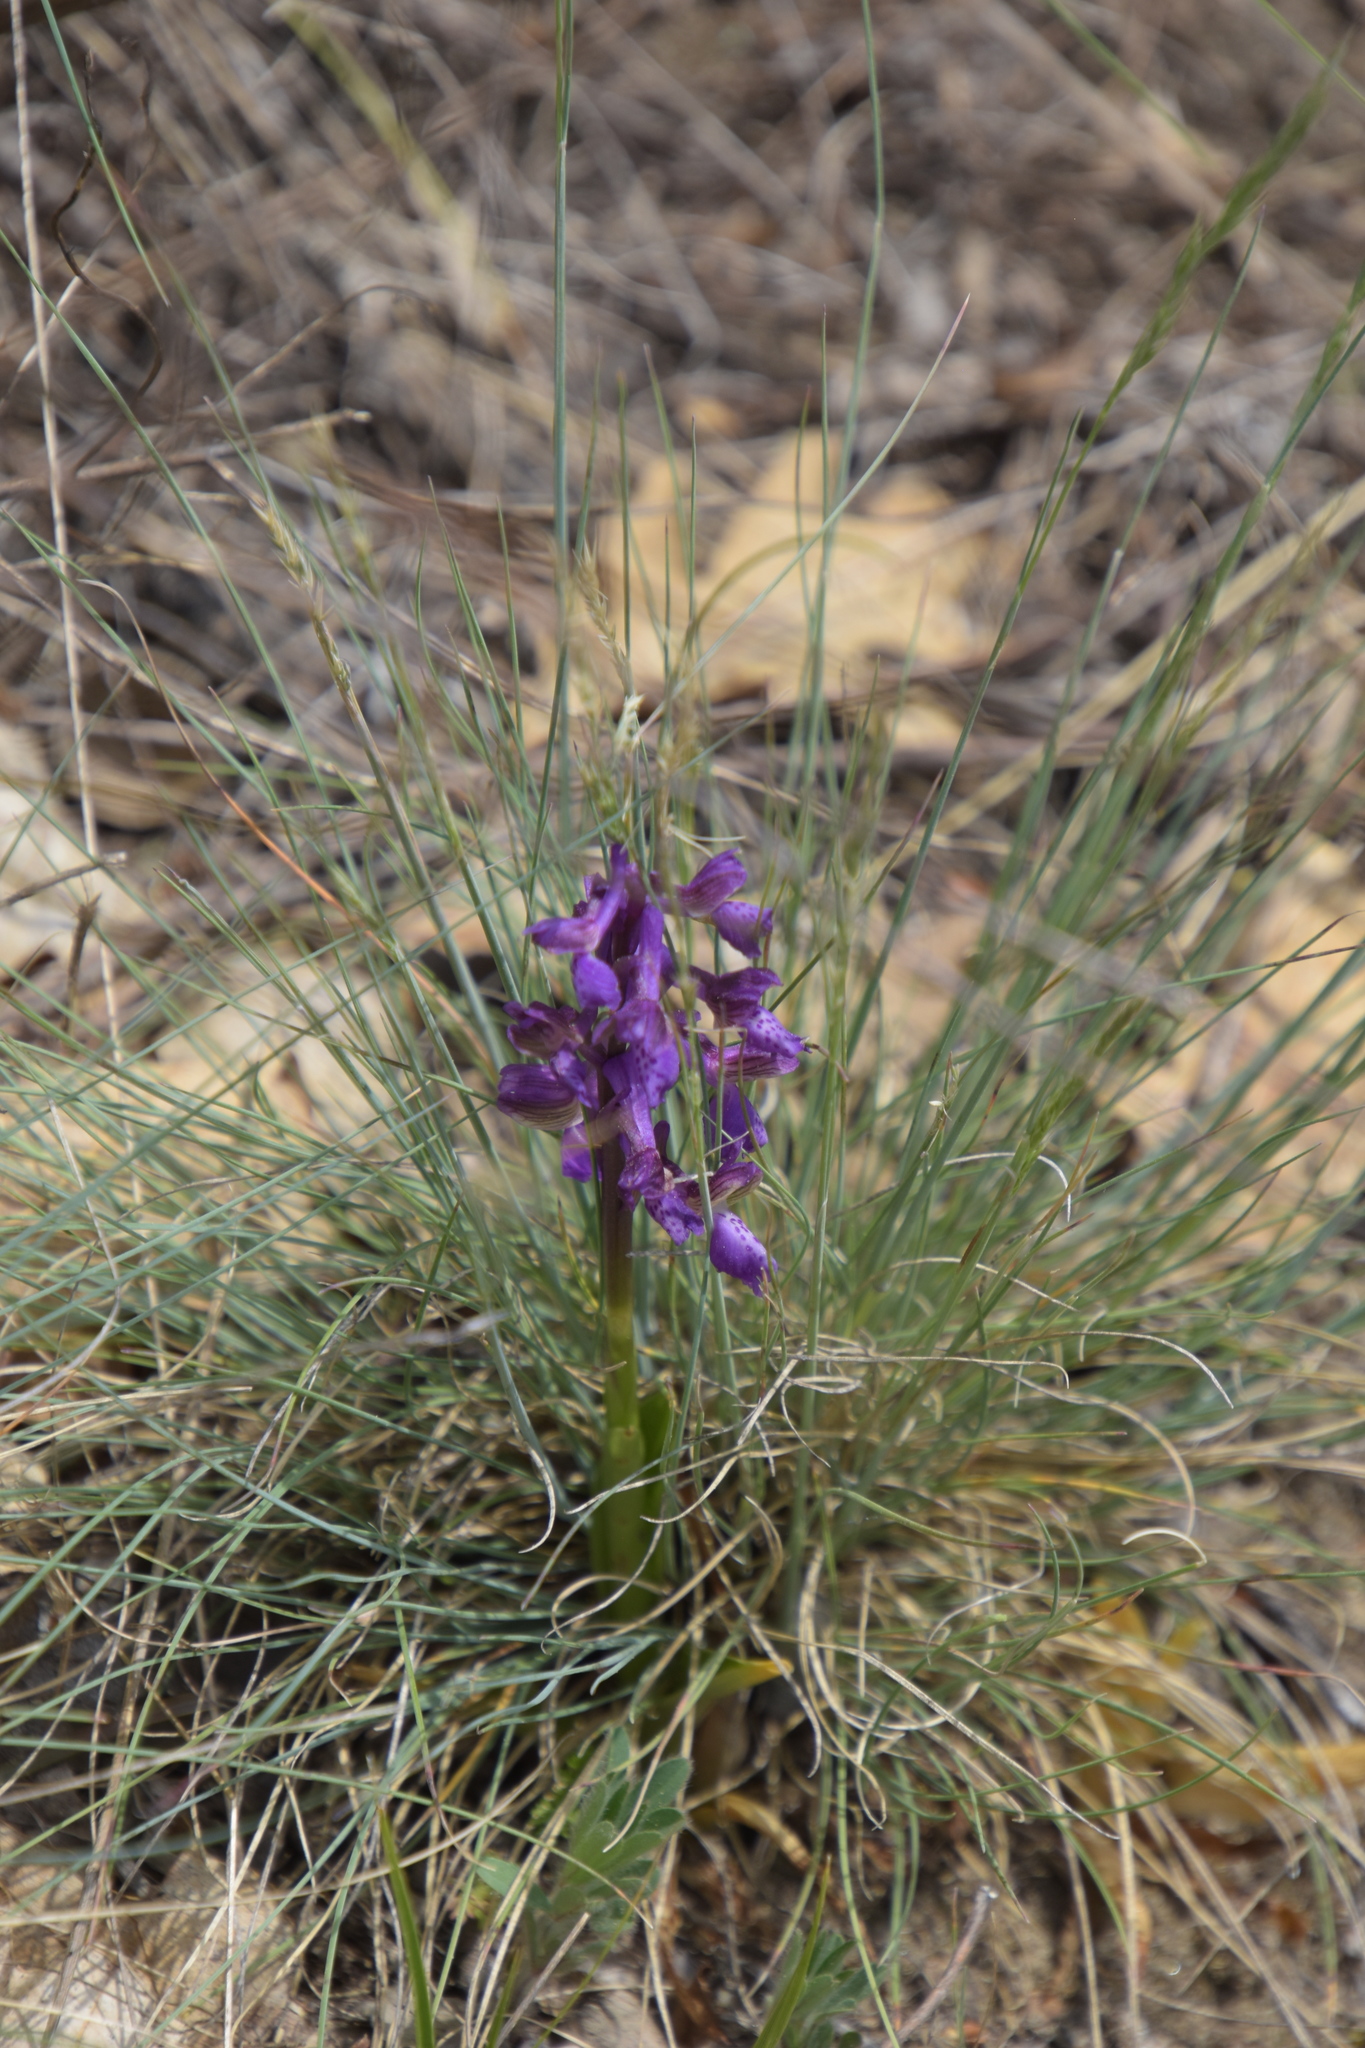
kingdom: Plantae
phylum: Tracheophyta
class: Liliopsida
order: Asparagales
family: Orchidaceae
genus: Anacamptis
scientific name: Anacamptis morio
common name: Green-winged orchid
